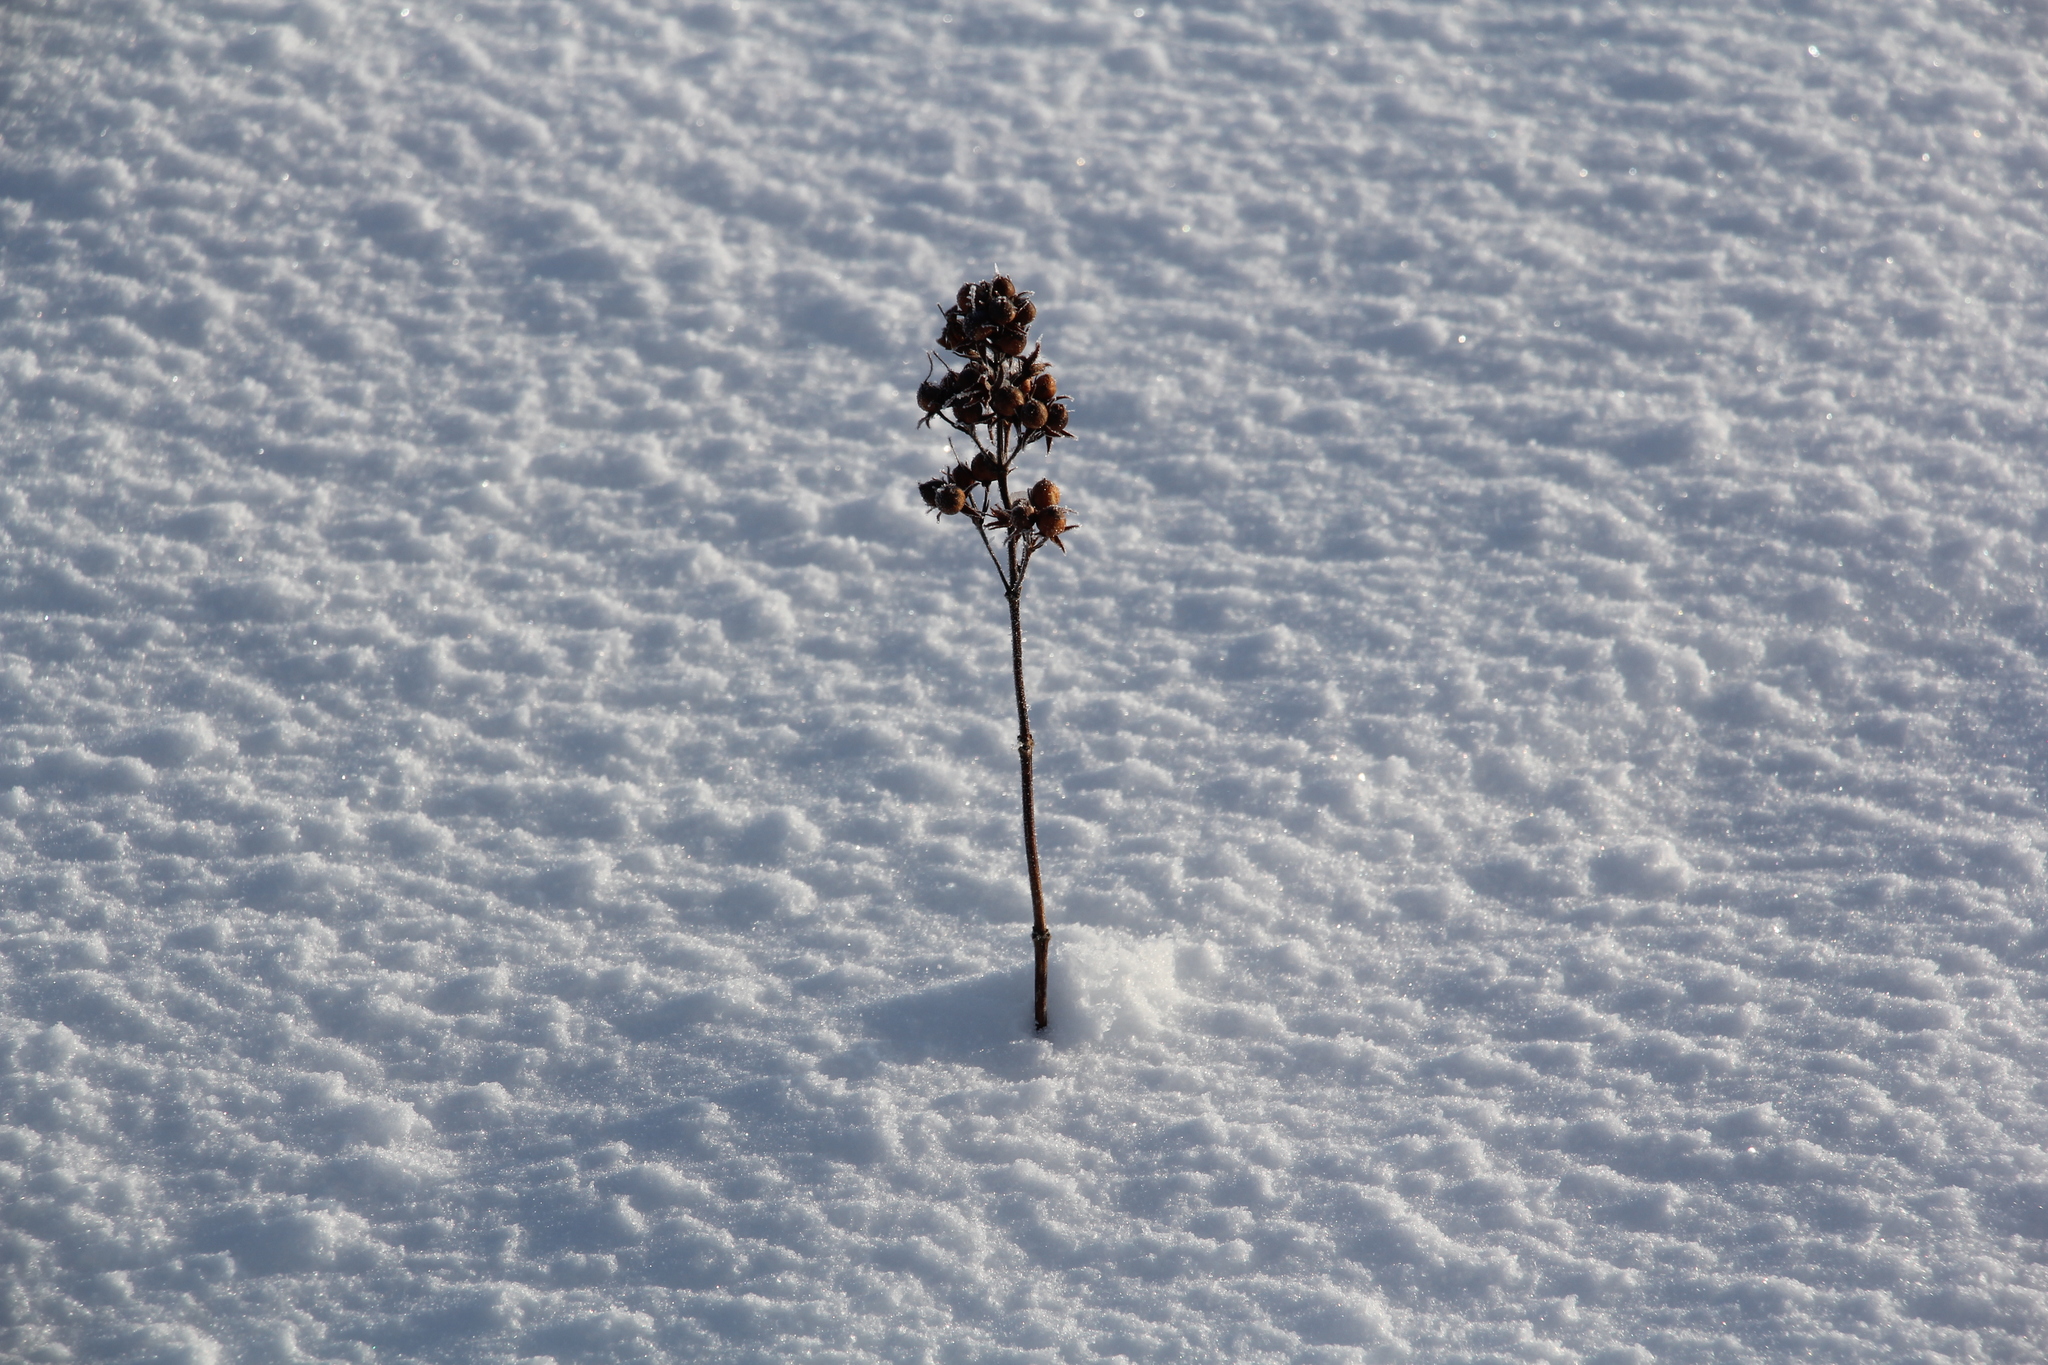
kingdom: Plantae
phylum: Tracheophyta
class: Magnoliopsida
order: Ericales
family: Primulaceae
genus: Lysimachia
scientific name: Lysimachia vulgaris
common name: Yellow loosestrife
